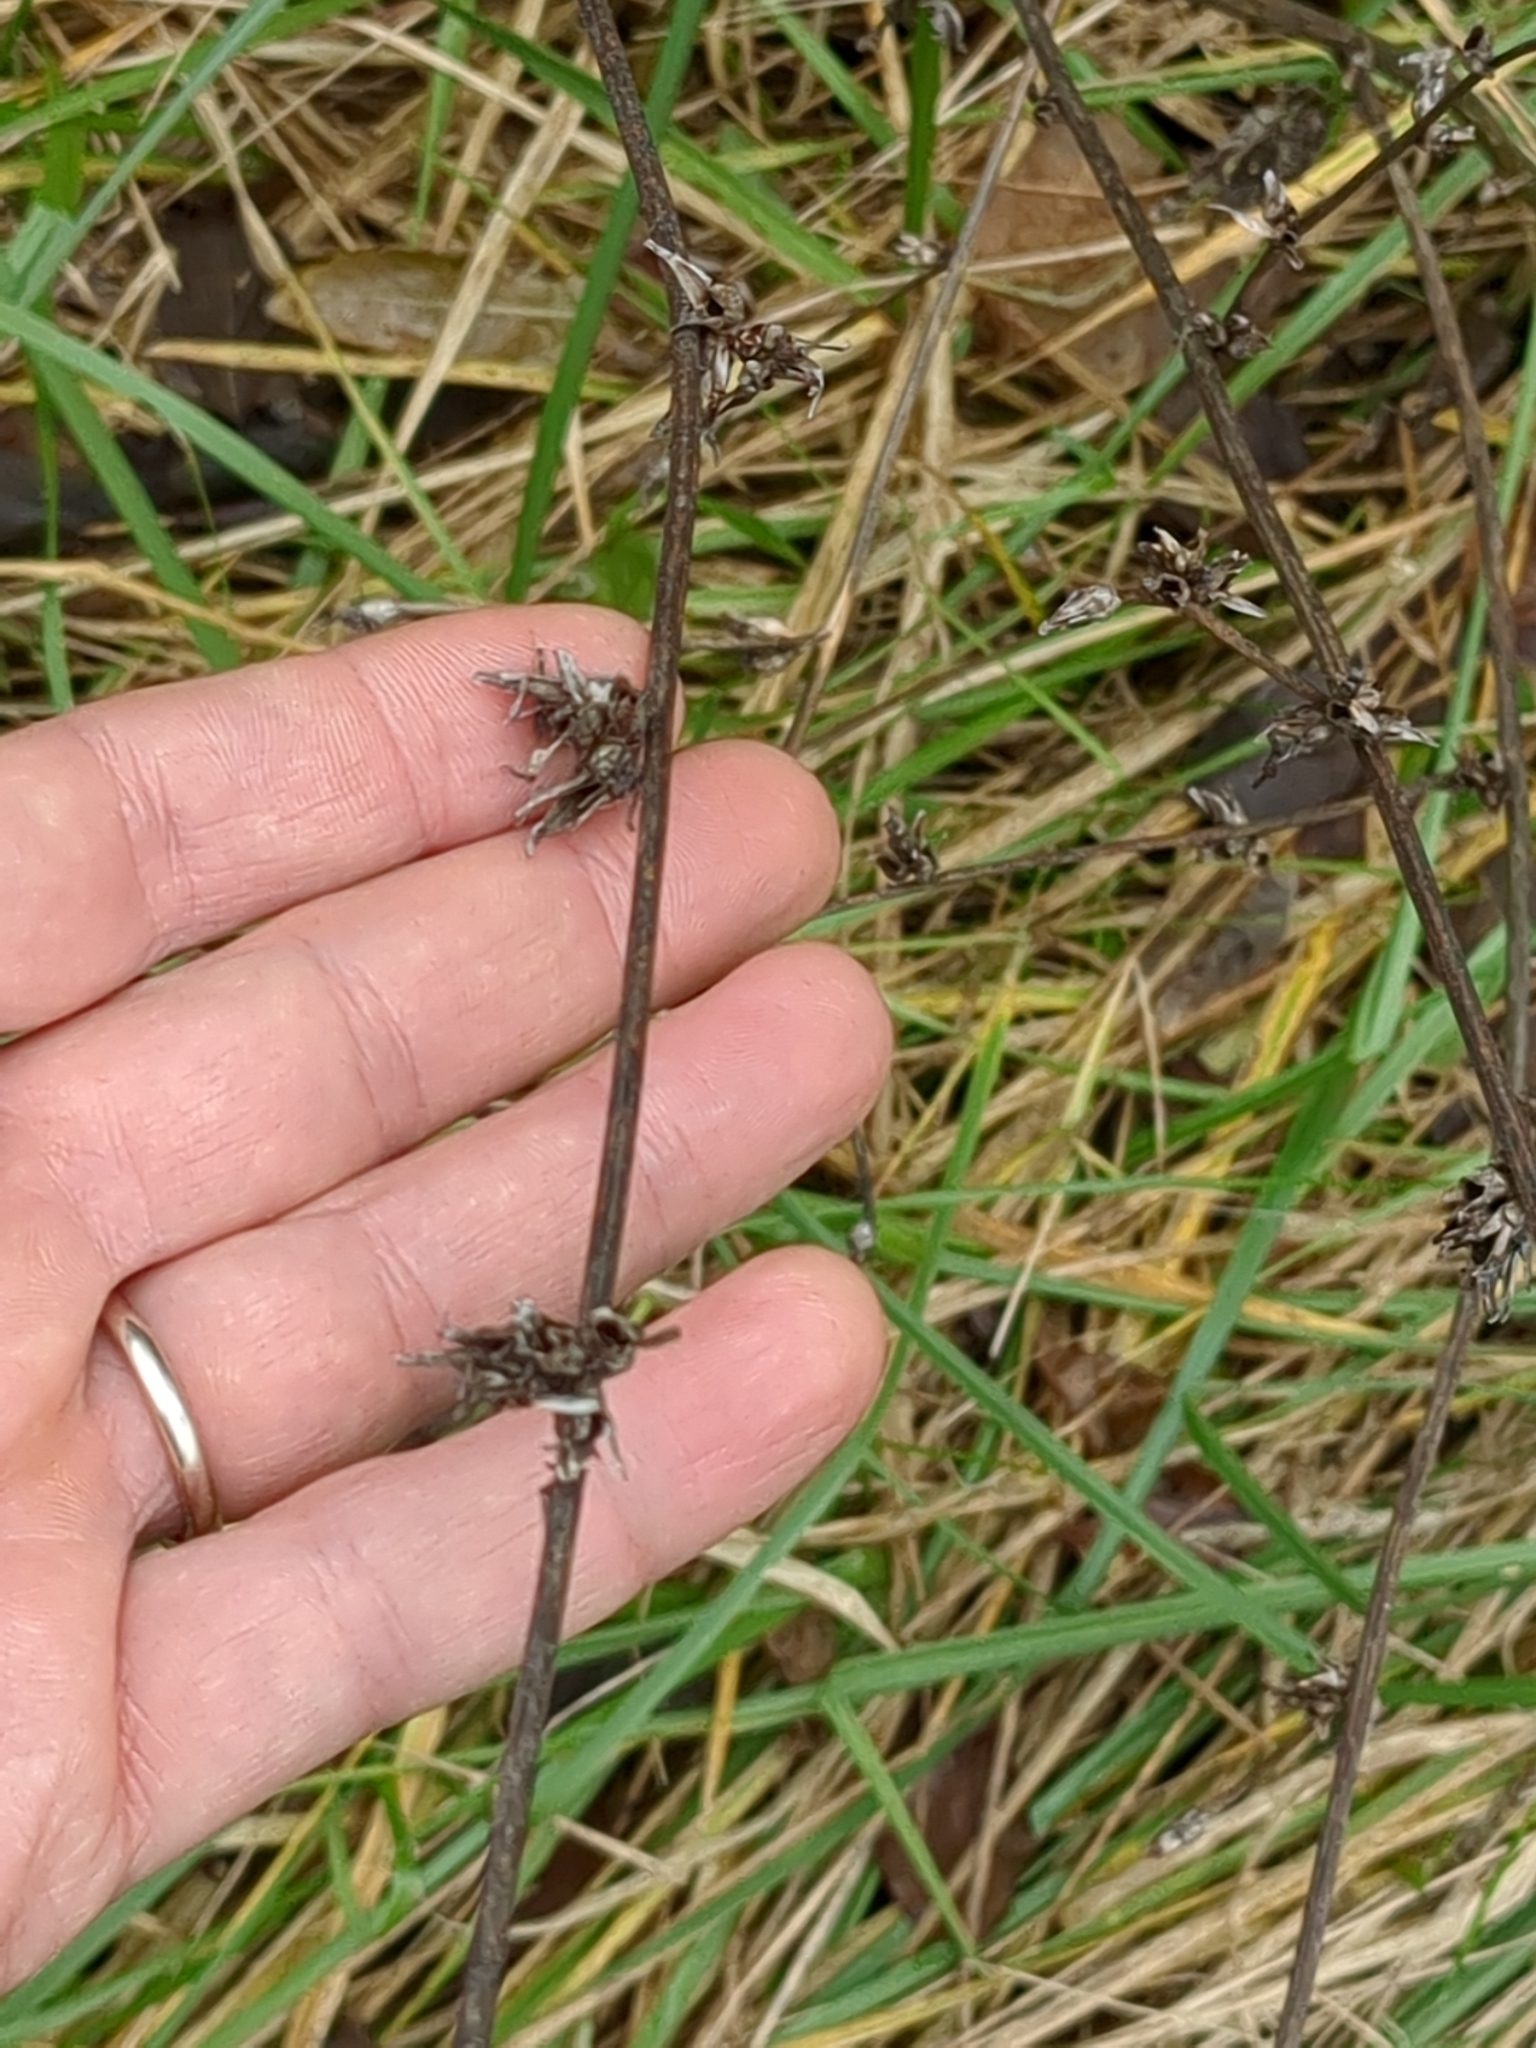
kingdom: Plantae
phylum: Tracheophyta
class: Magnoliopsida
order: Asterales
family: Asteraceae
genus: Cichorium
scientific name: Cichorium intybus
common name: Chicory
